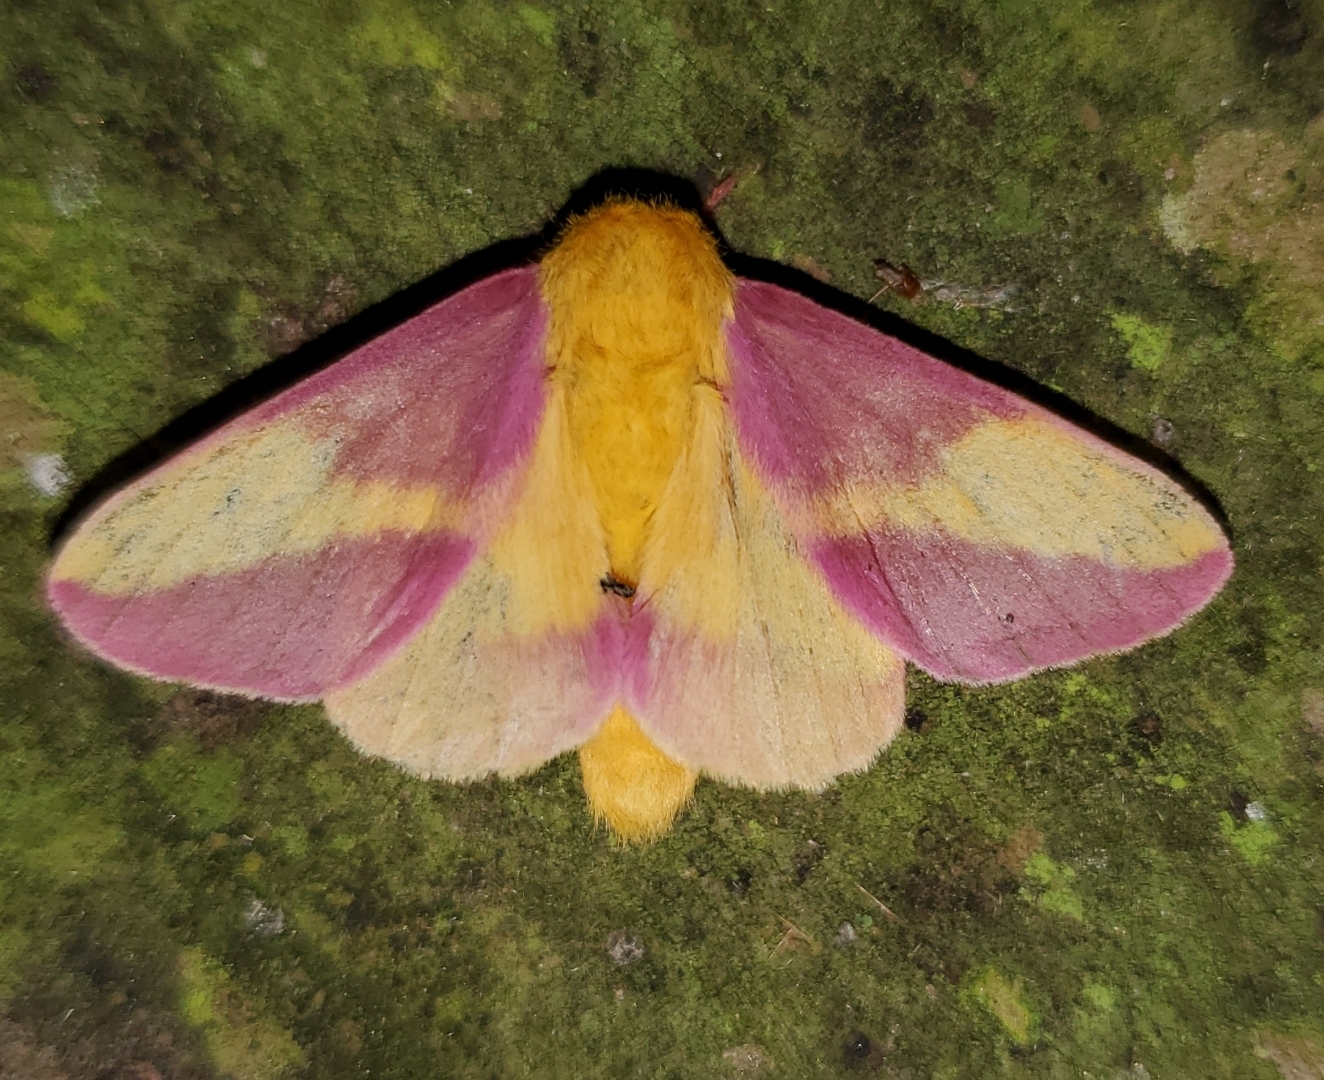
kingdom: Animalia
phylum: Arthropoda
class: Insecta
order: Lepidoptera
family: Saturniidae
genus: Dryocampa
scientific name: Dryocampa rubicunda
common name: Rosy maple moth
